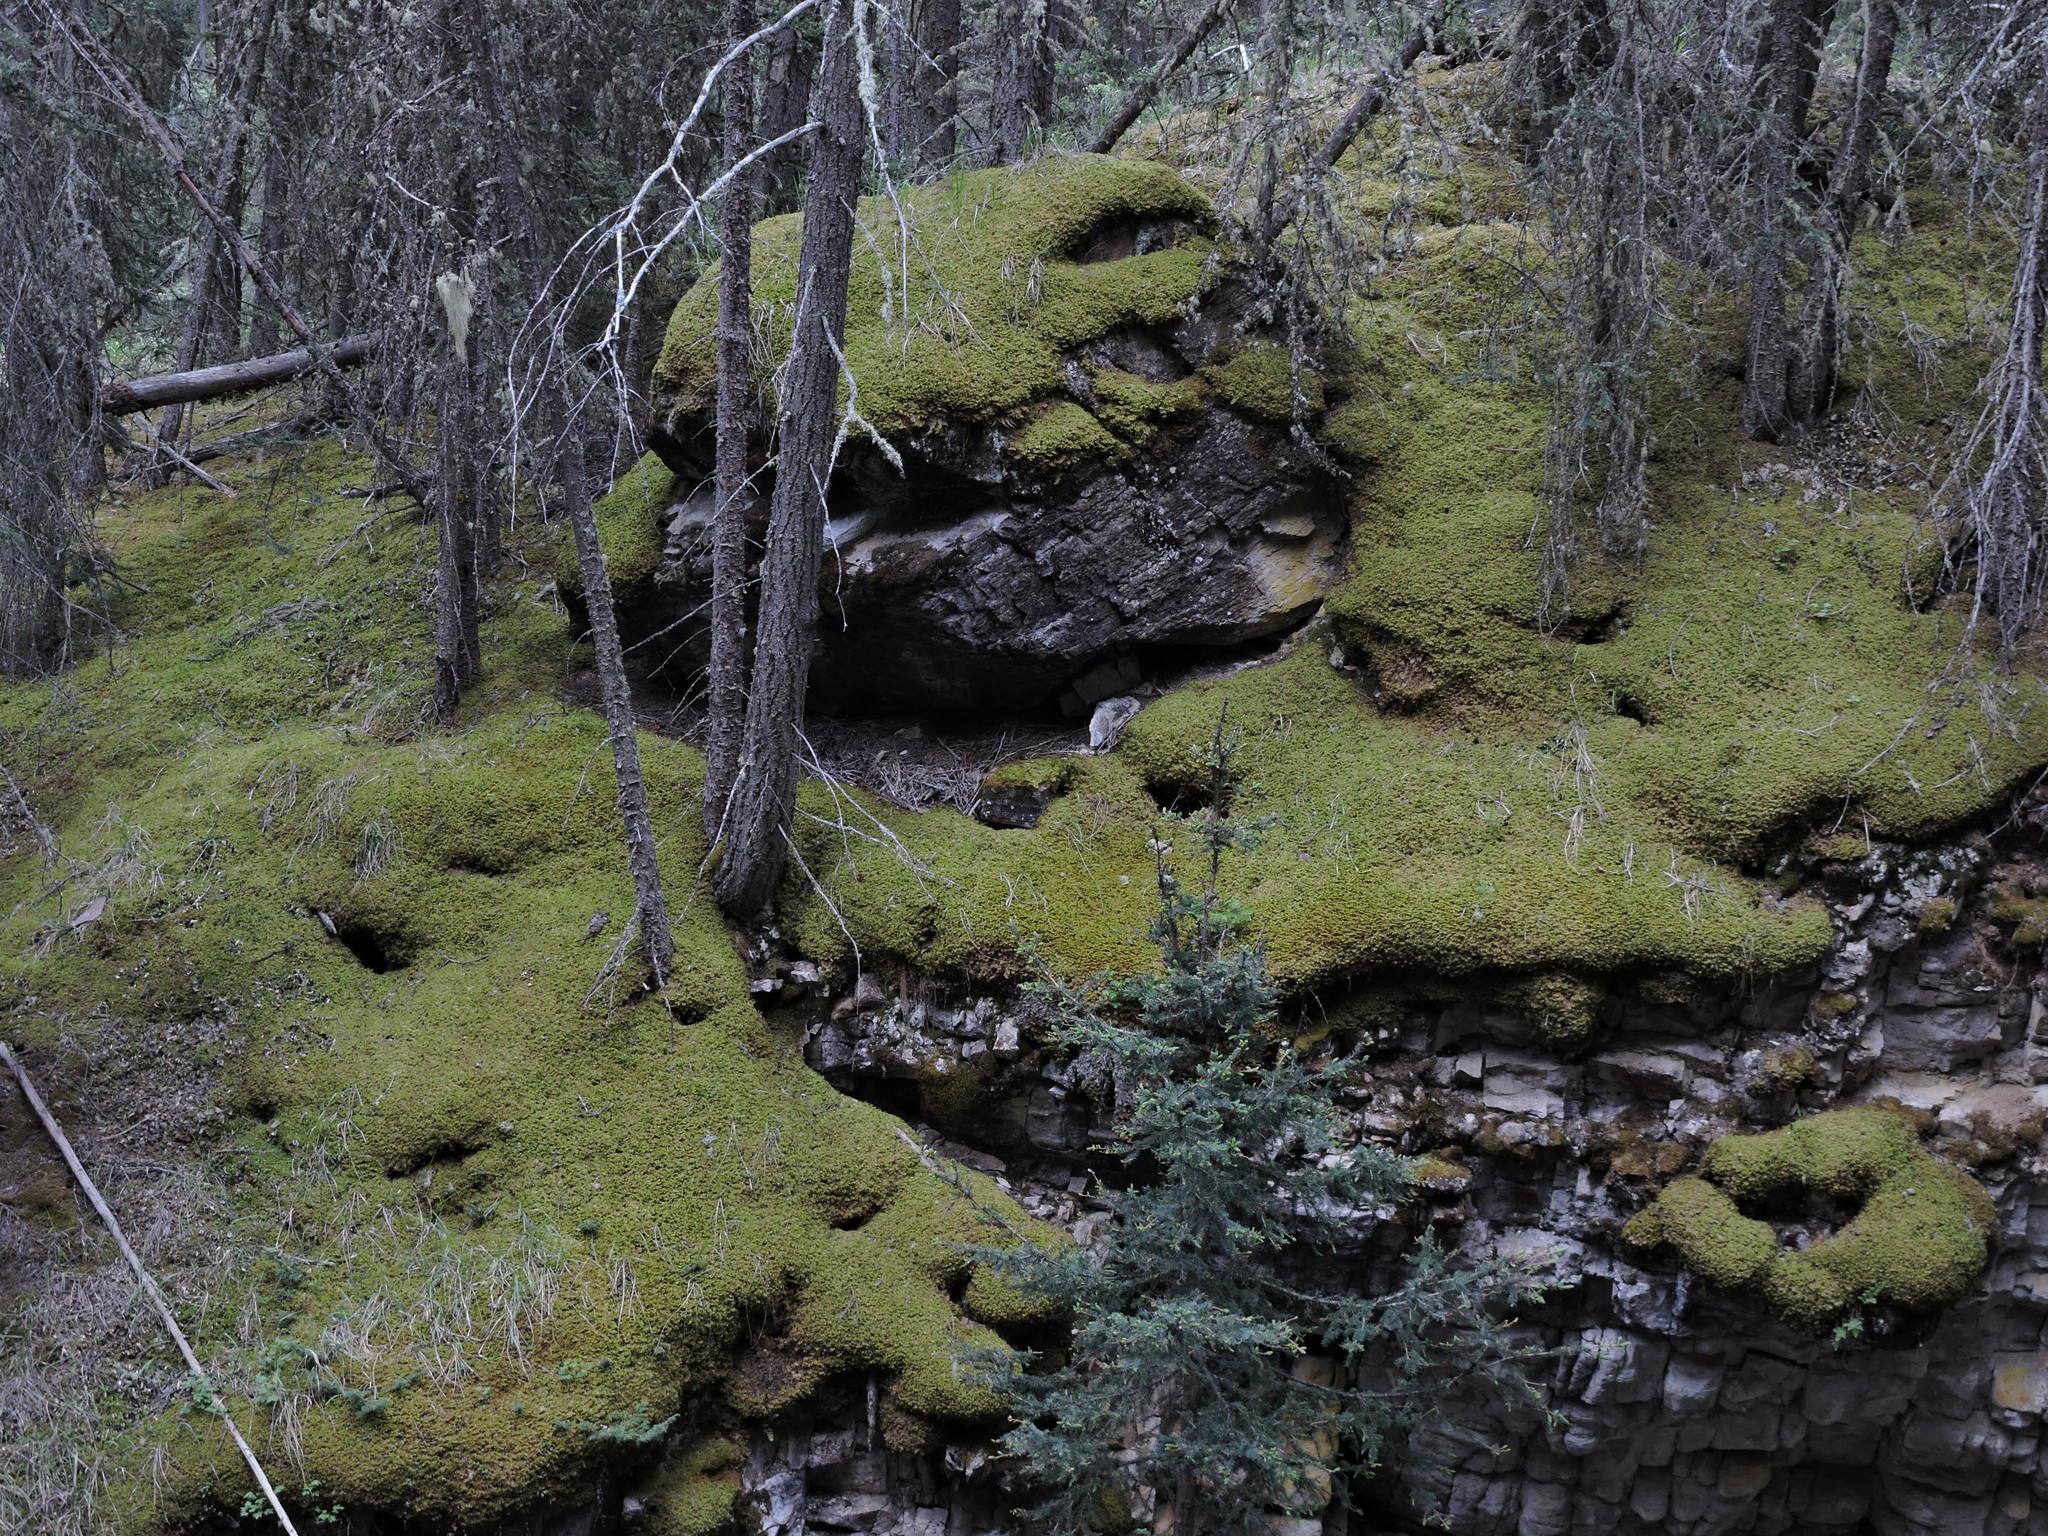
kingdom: Plantae
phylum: Bryophyta
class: Bryopsida
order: Hypnales
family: Thuidiaceae
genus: Abietinella
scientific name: Abietinella abietina
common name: Wiry fern moss
